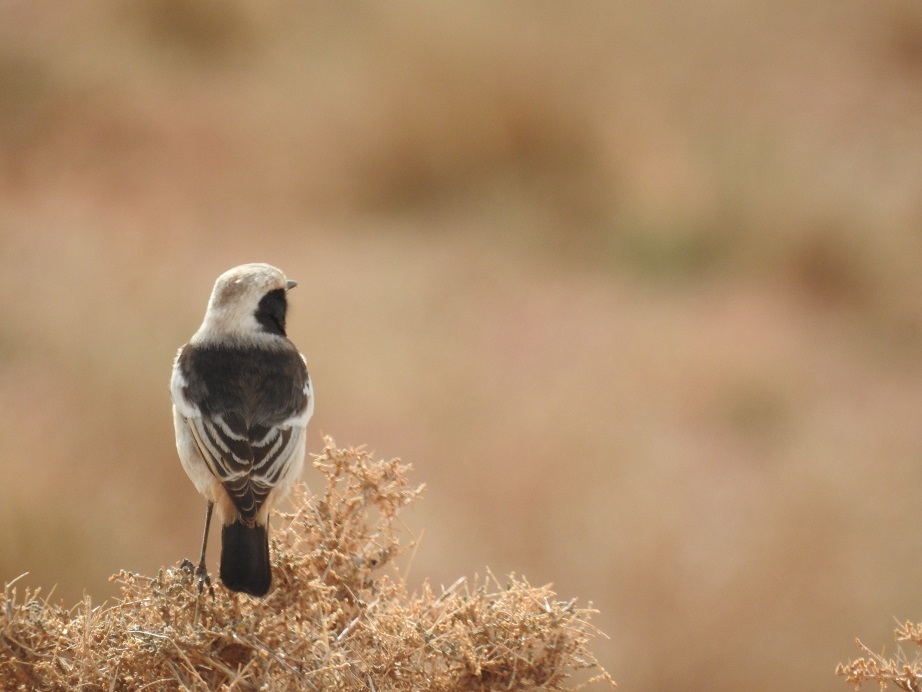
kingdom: Animalia
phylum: Chordata
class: Aves
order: Passeriformes
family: Muscicapidae
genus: Oenanthe
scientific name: Oenanthe moesta
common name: Red-rumped wheatear
